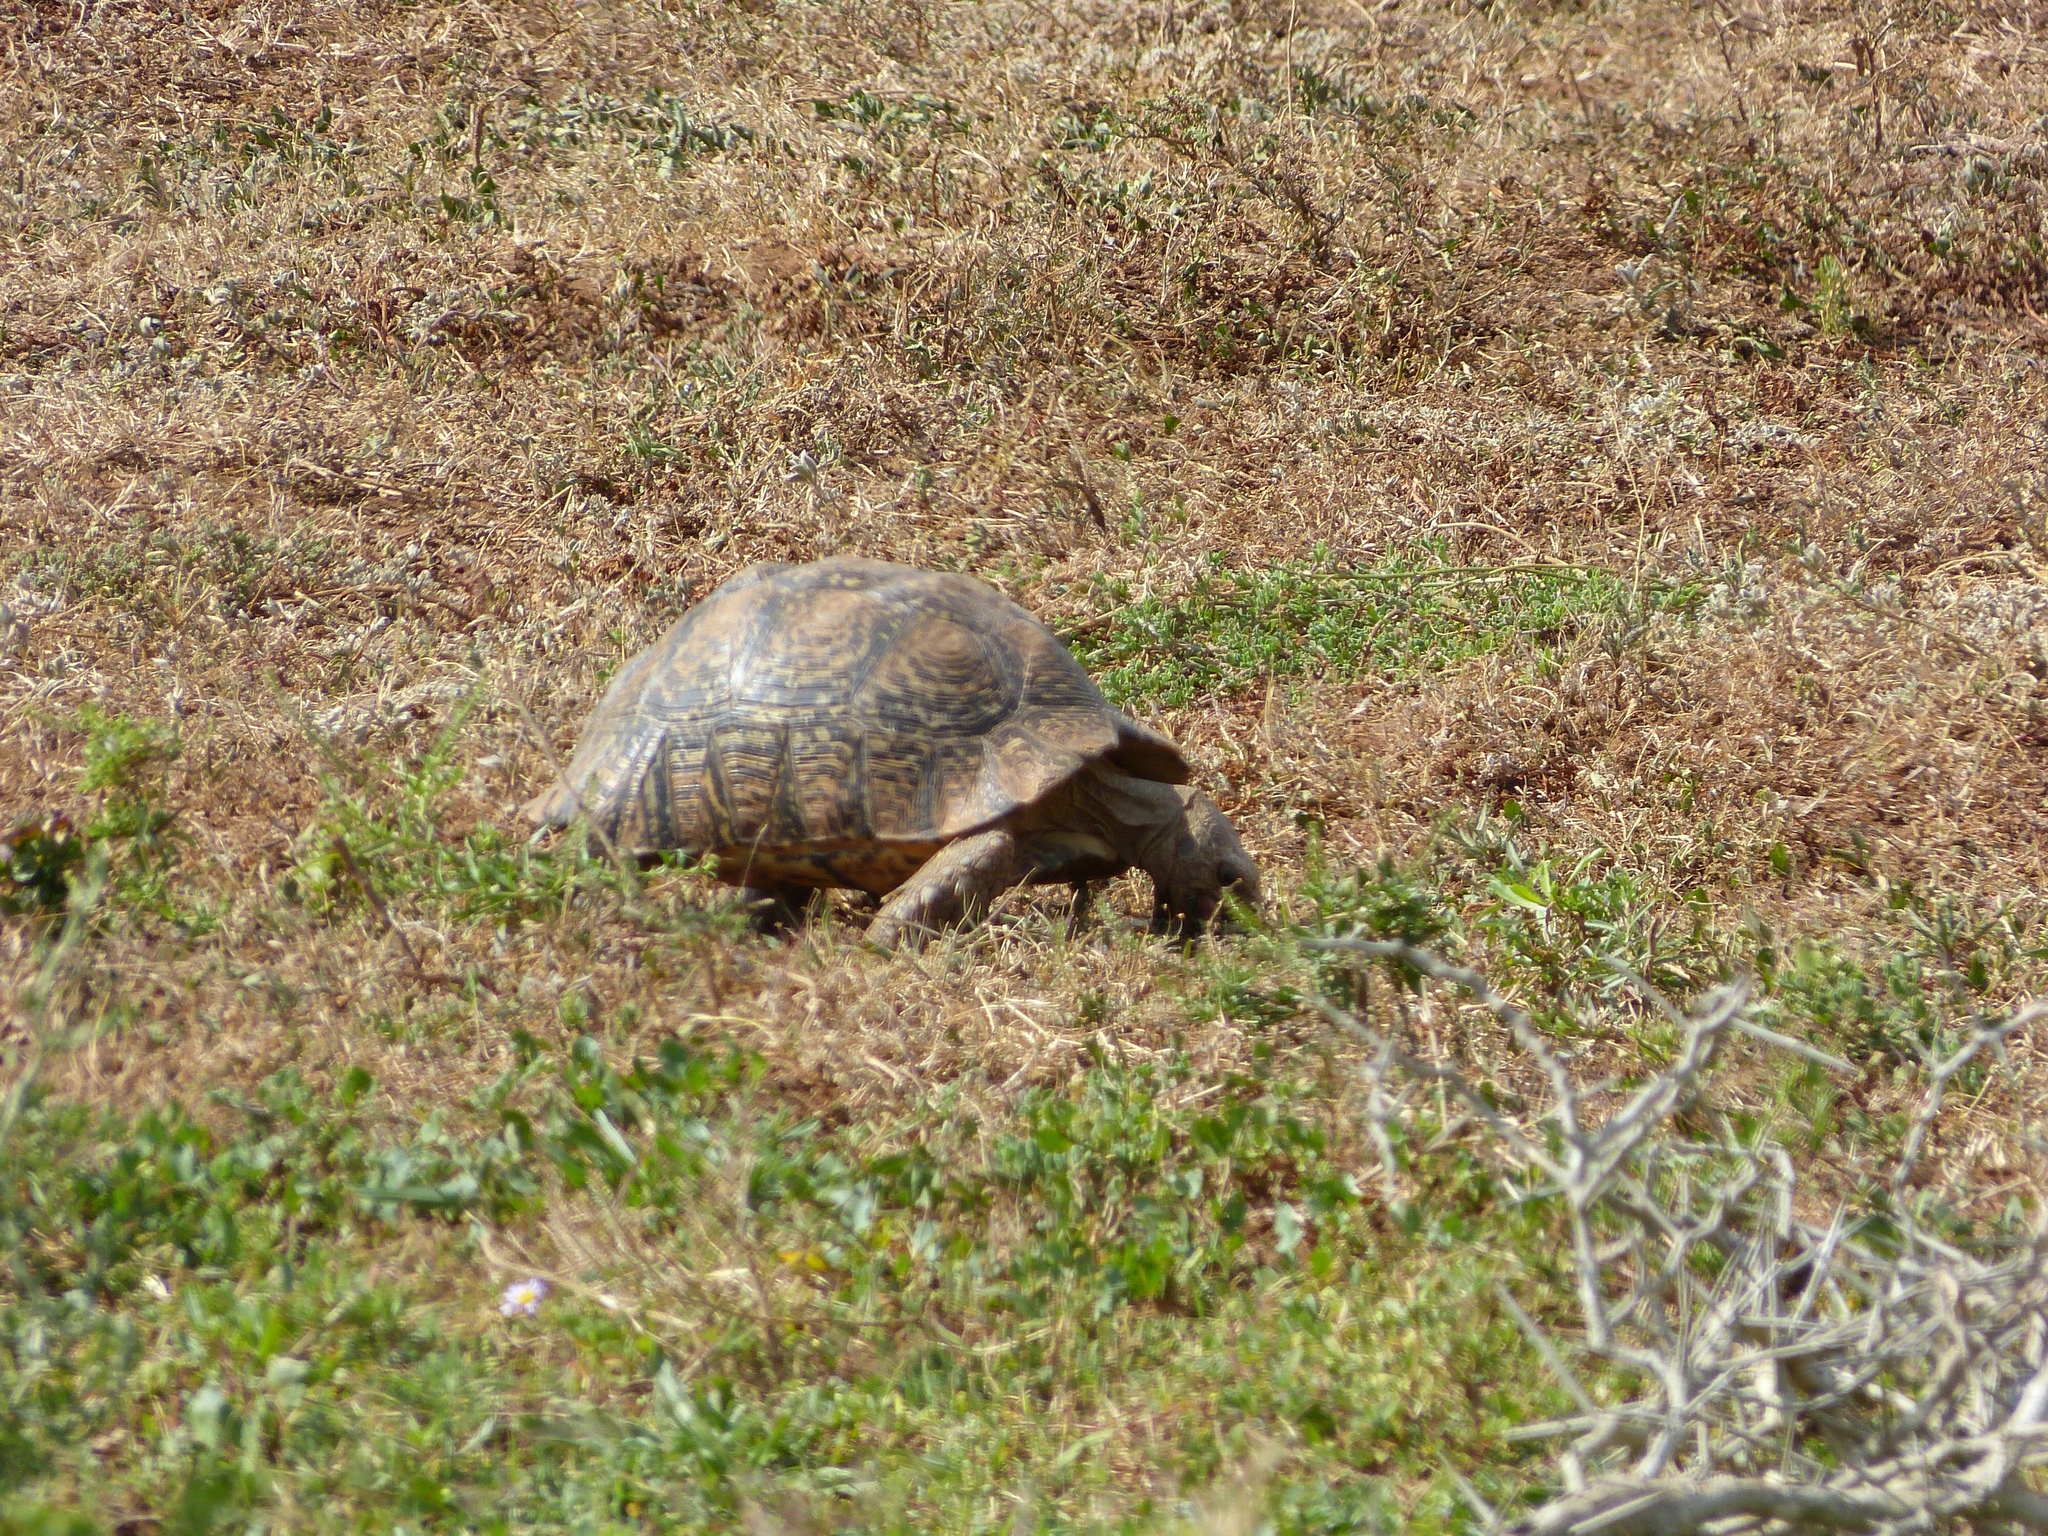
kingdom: Animalia
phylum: Chordata
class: Testudines
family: Testudinidae
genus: Stigmochelys
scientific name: Stigmochelys pardalis
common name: Leopard tortoise
